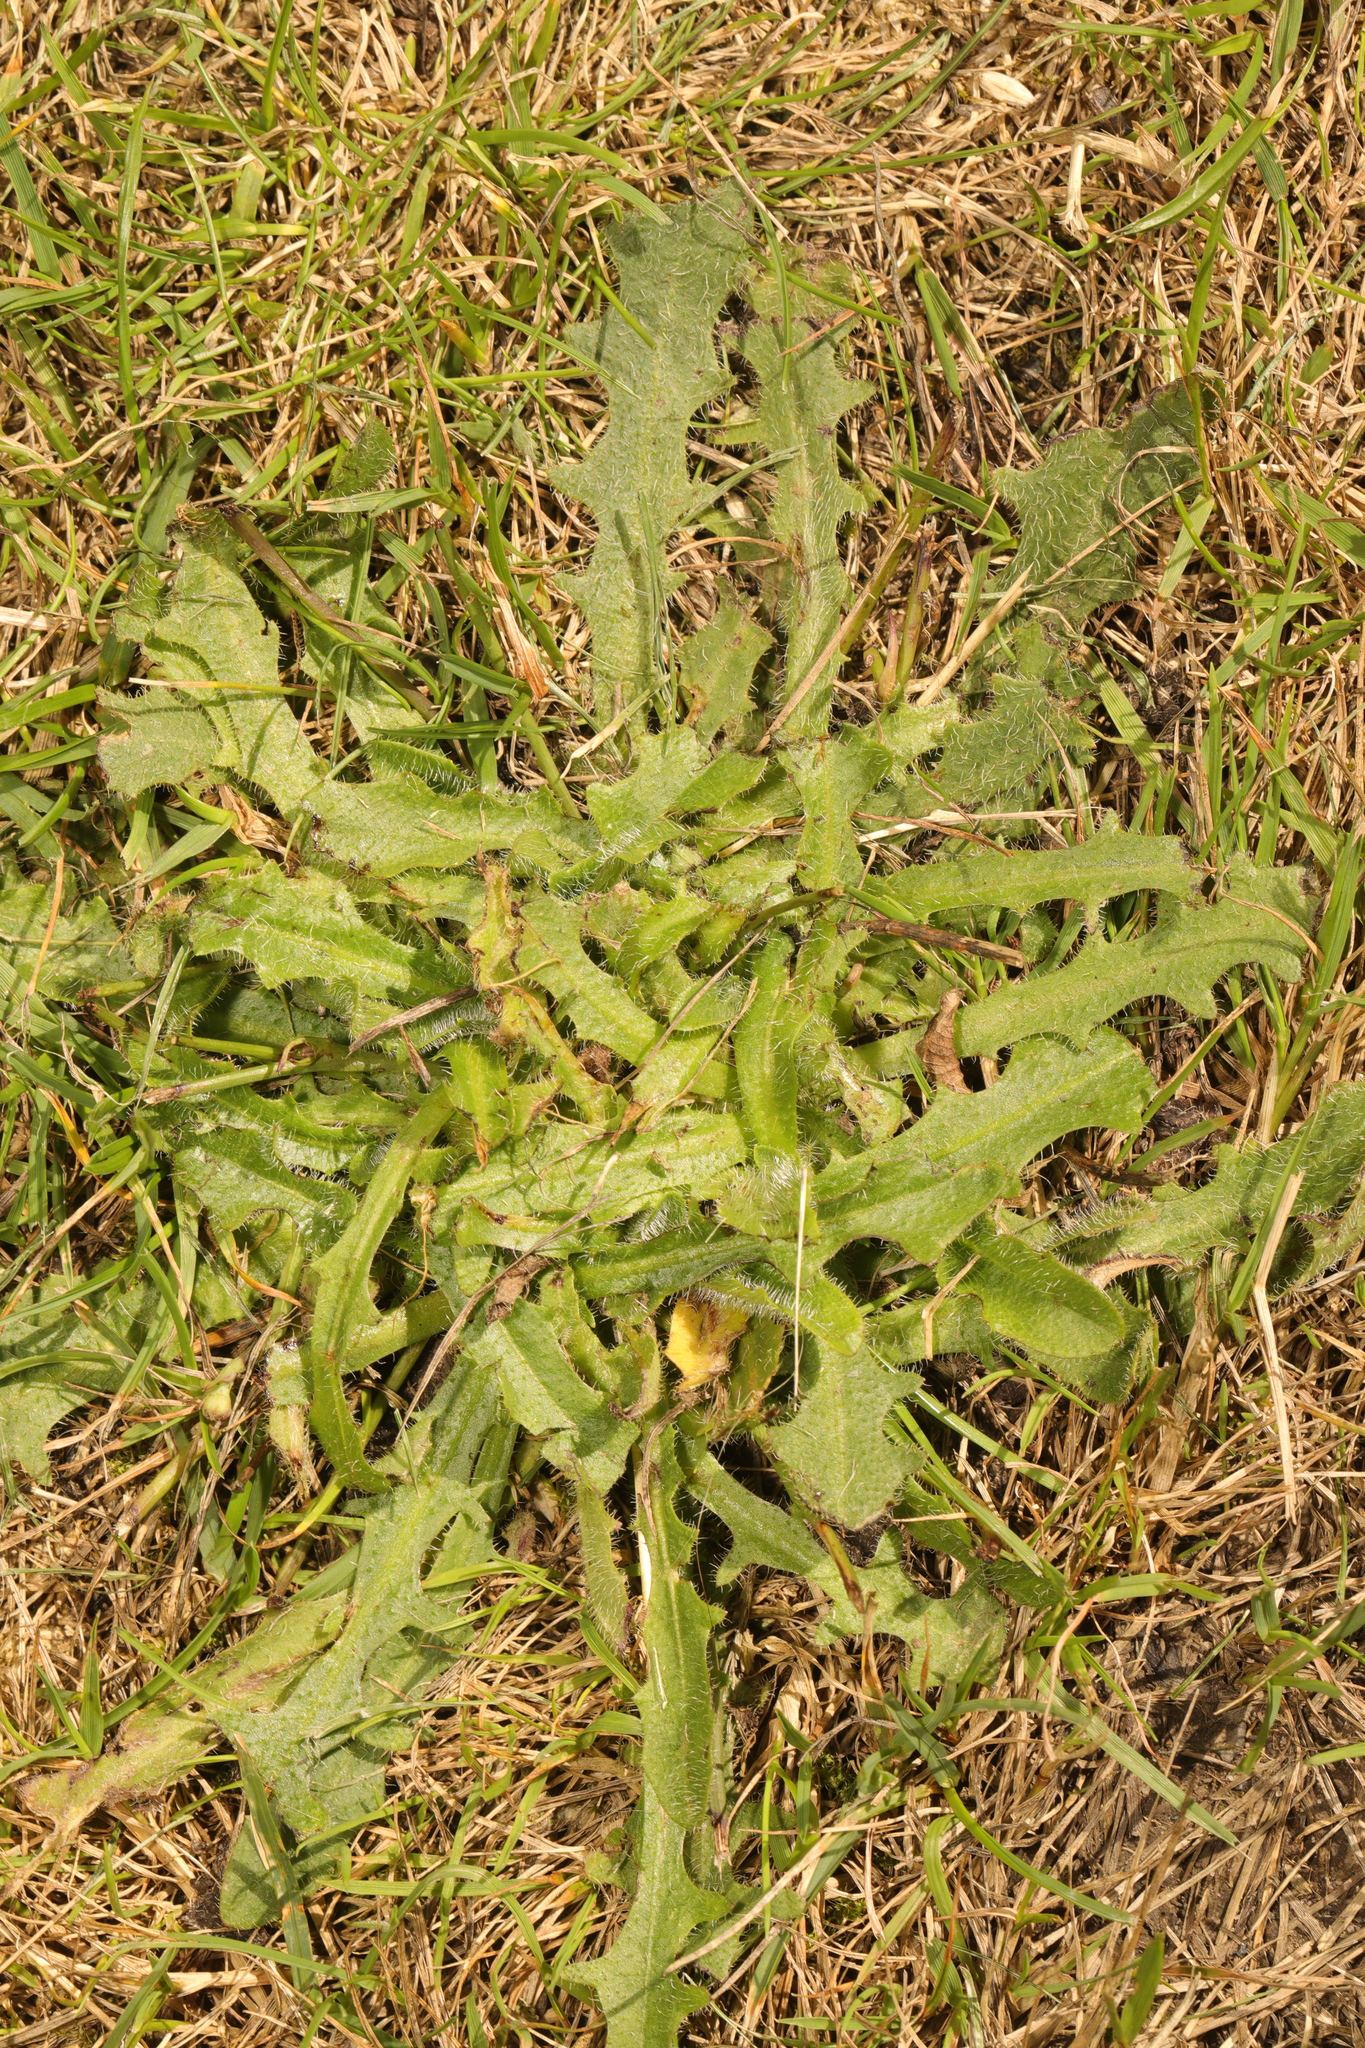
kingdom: Plantae
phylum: Tracheophyta
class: Magnoliopsida
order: Asterales
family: Asteraceae
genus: Hypochaeris
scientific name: Hypochaeris radicata
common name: Flatweed
